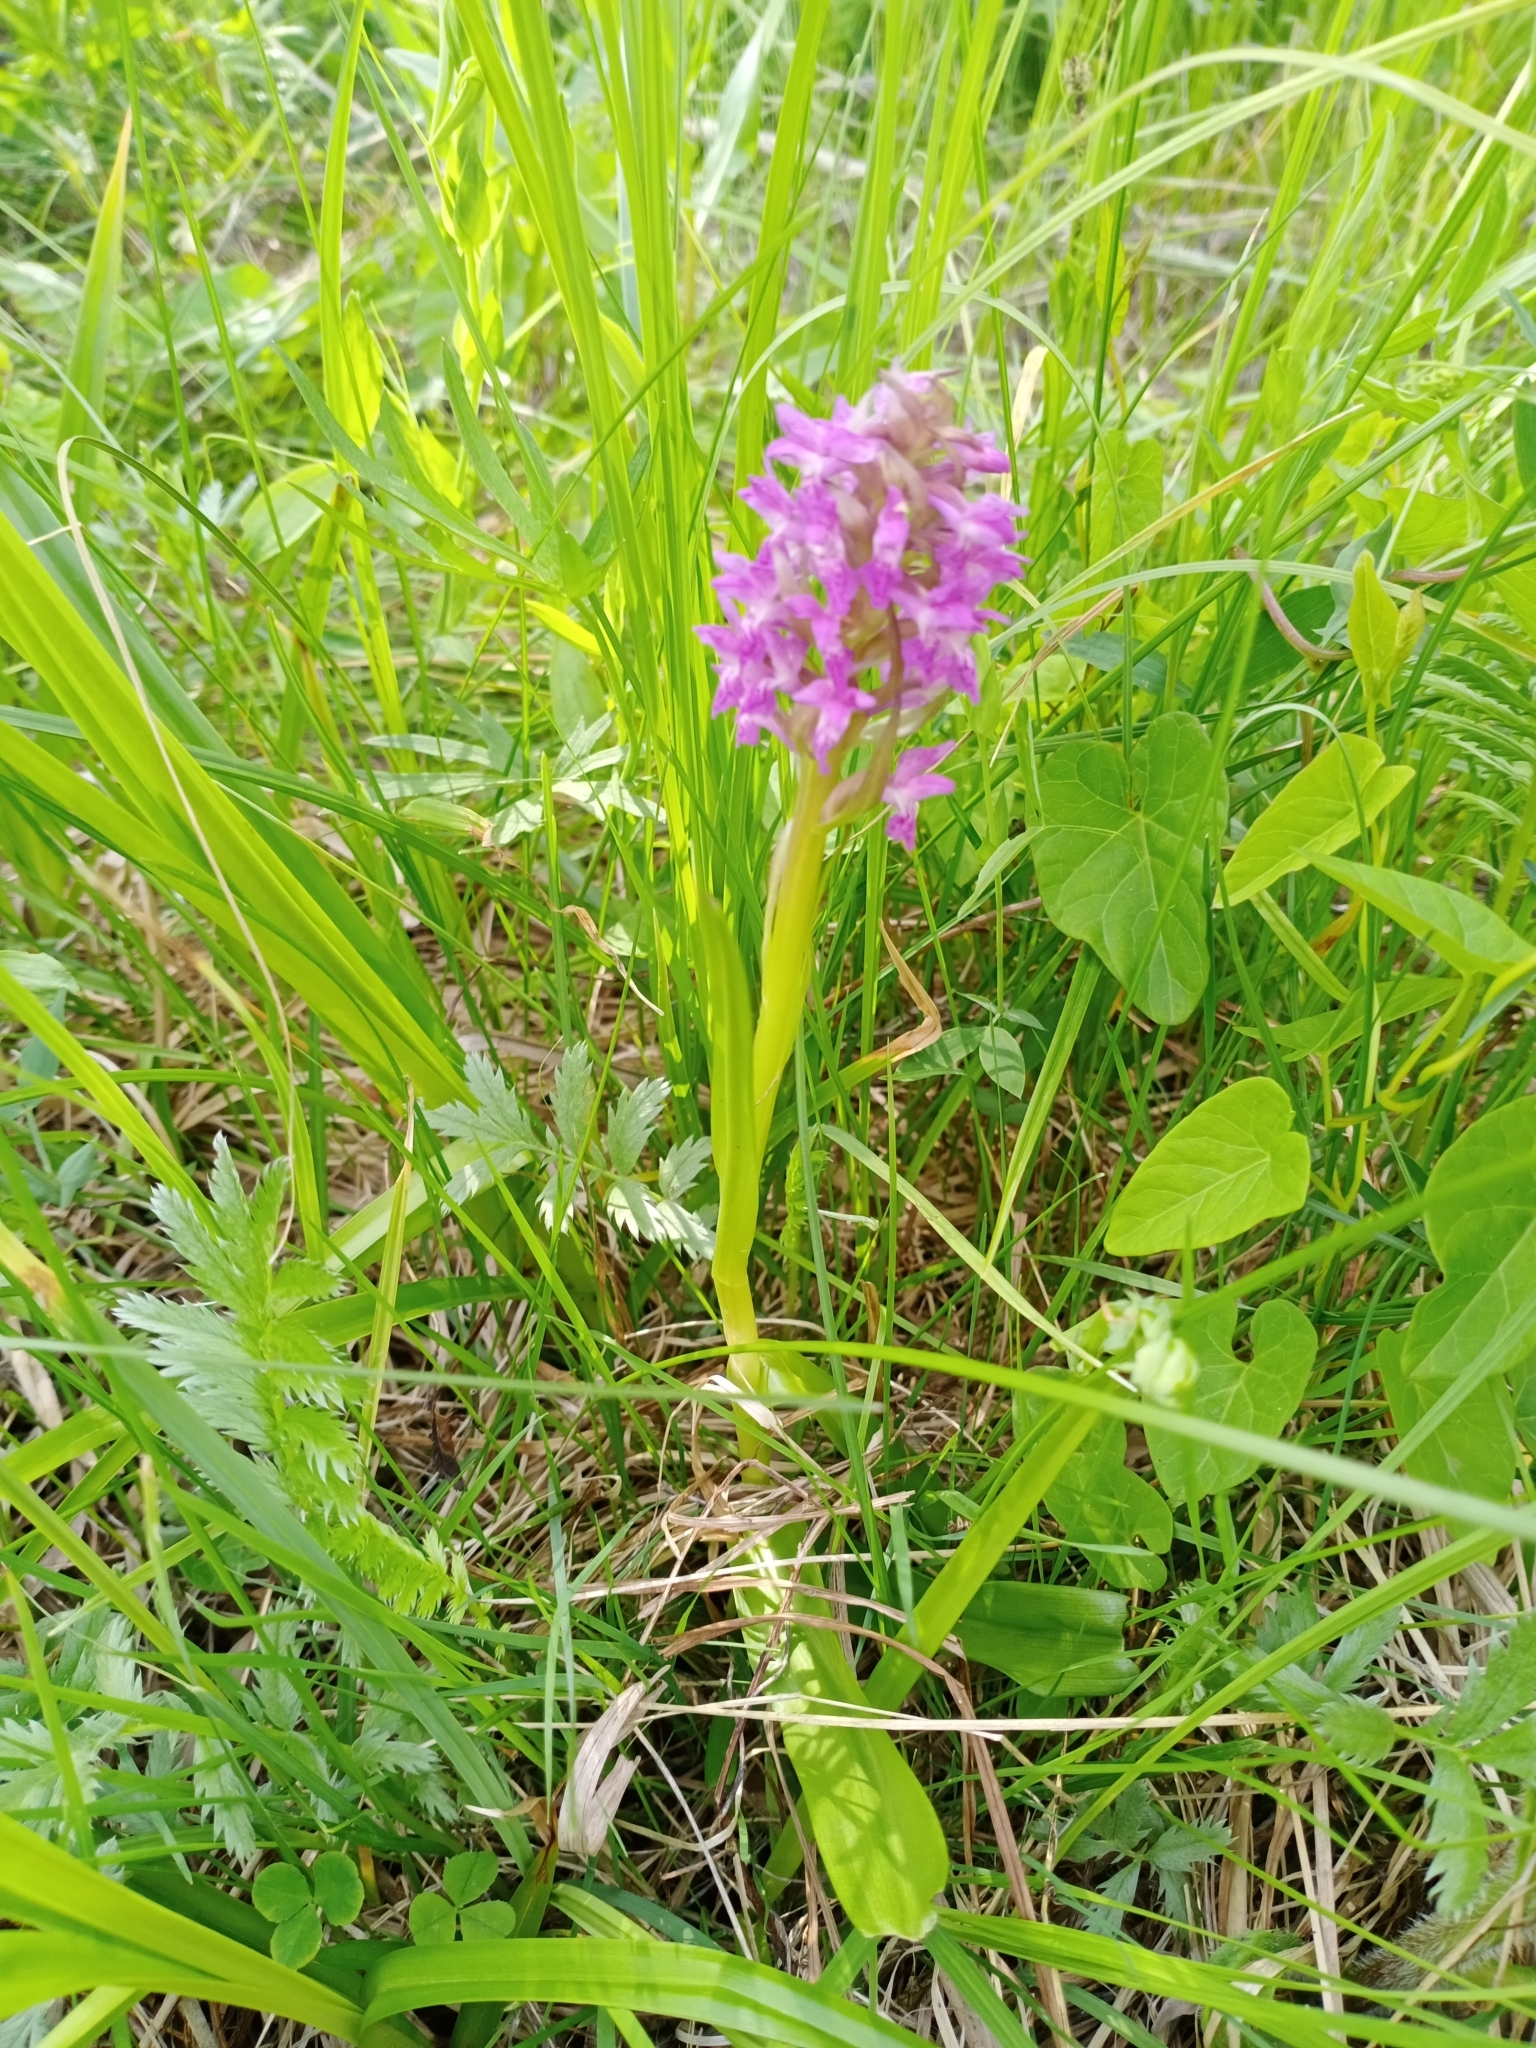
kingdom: Plantae
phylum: Tracheophyta
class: Liliopsida
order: Asparagales
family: Orchidaceae
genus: Dactylorhiza
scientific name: Dactylorhiza incarnata
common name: Early marsh-orchid
